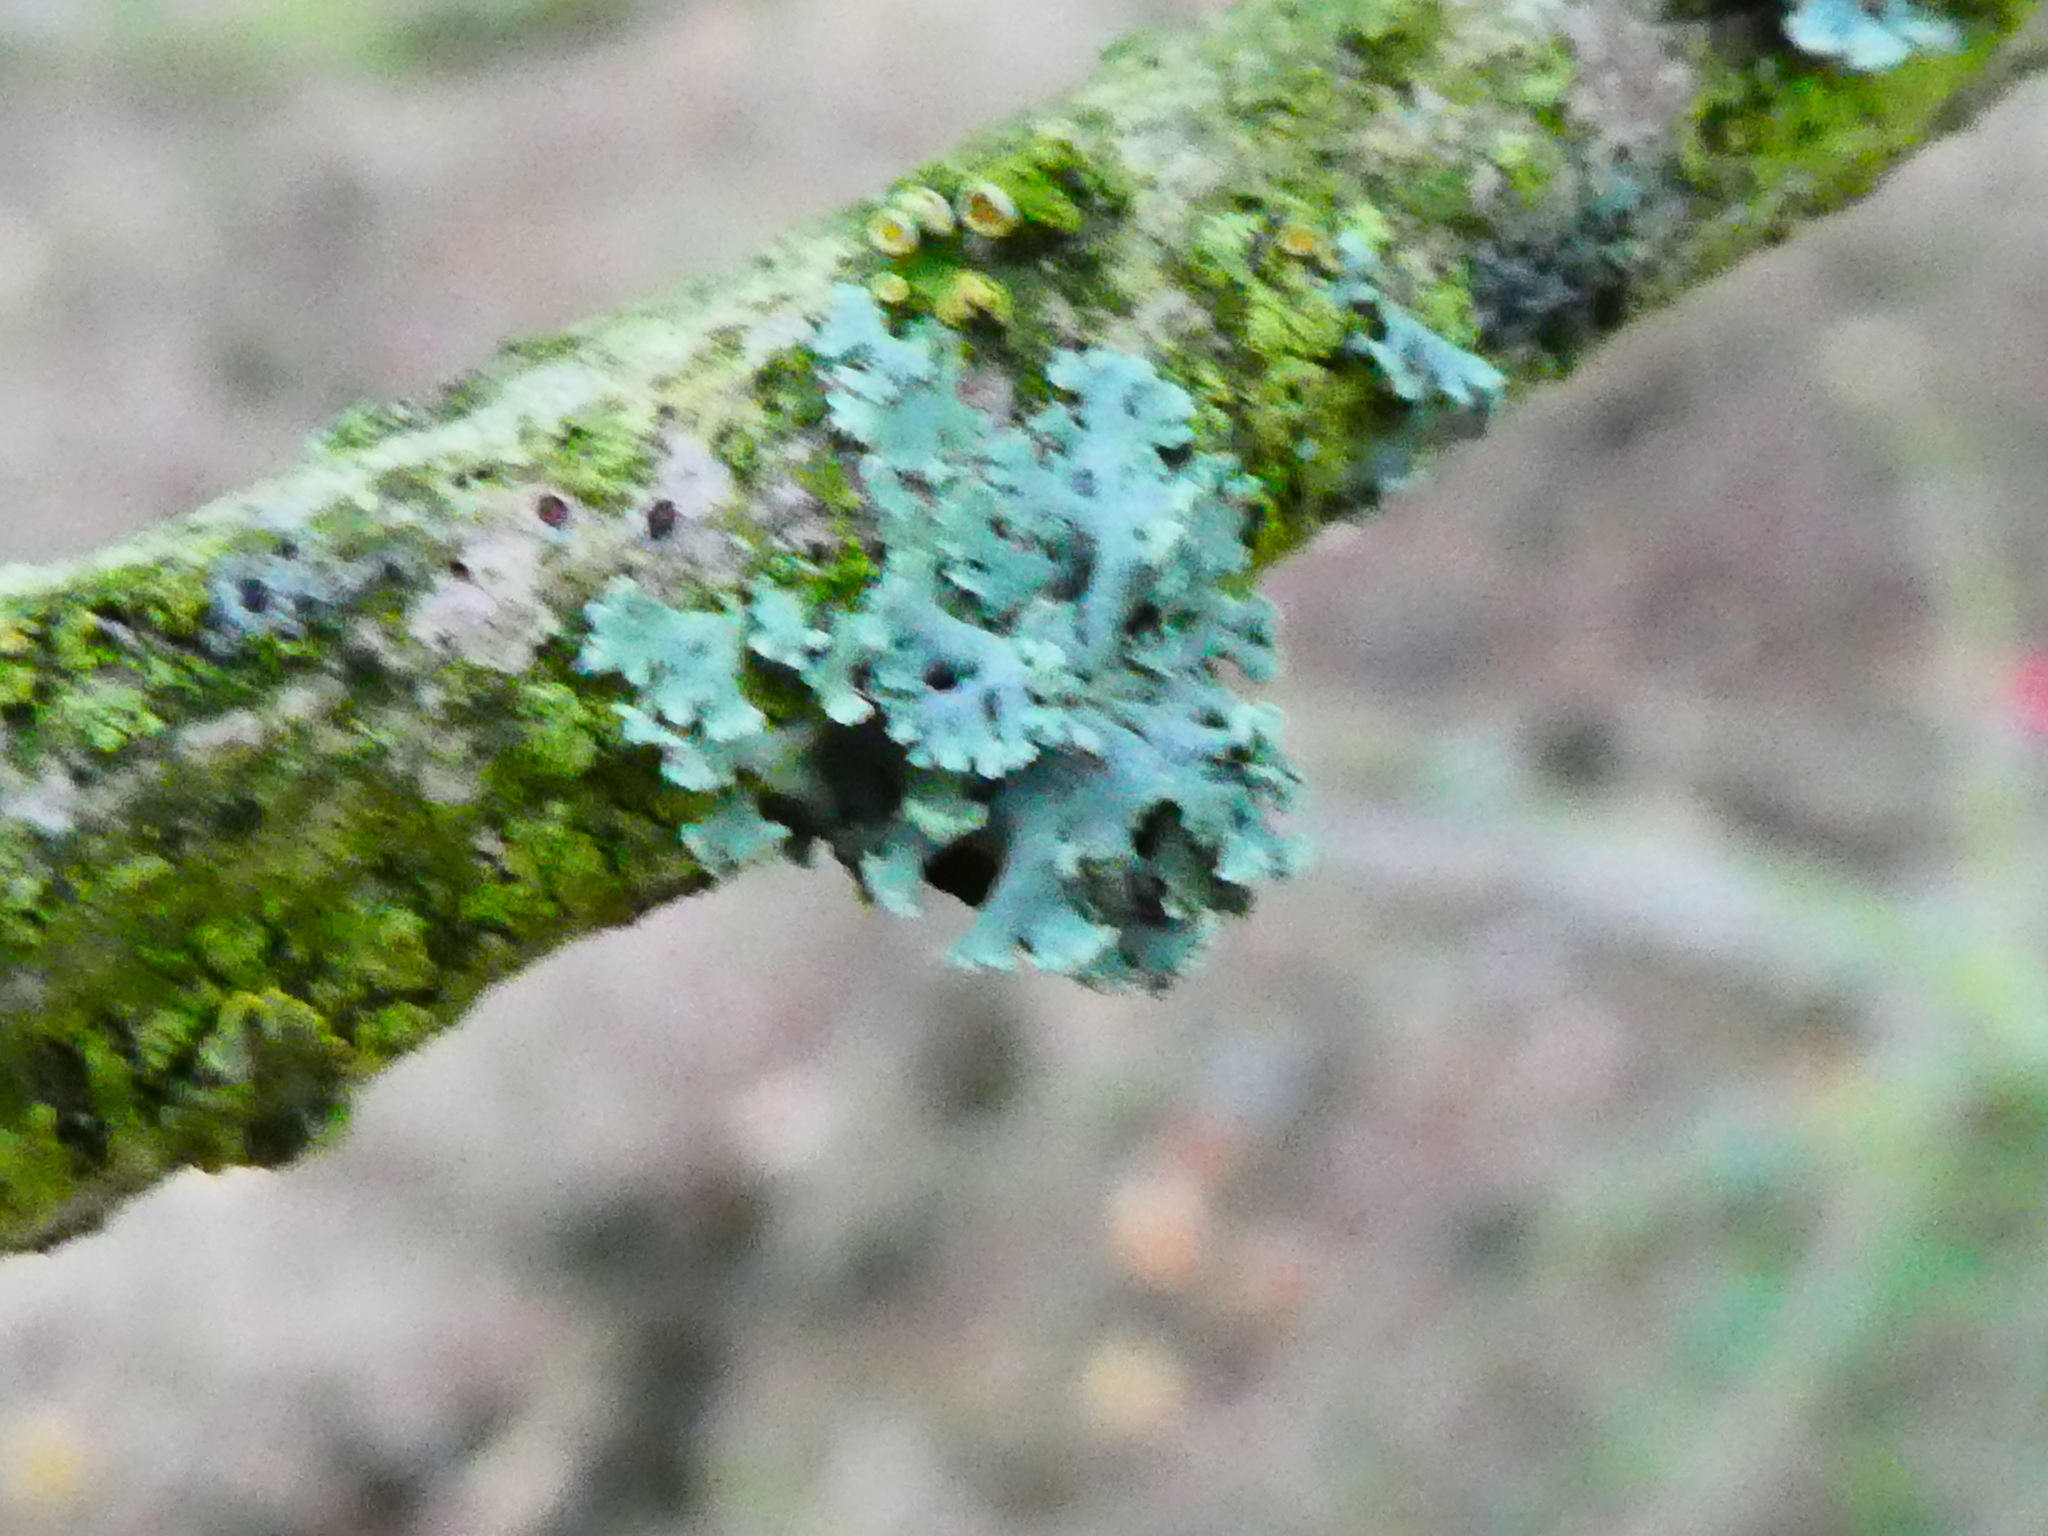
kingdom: Fungi
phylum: Ascomycota
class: Lecanoromycetes
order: Caliciales
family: Physciaceae
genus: Physcia
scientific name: Physcia
